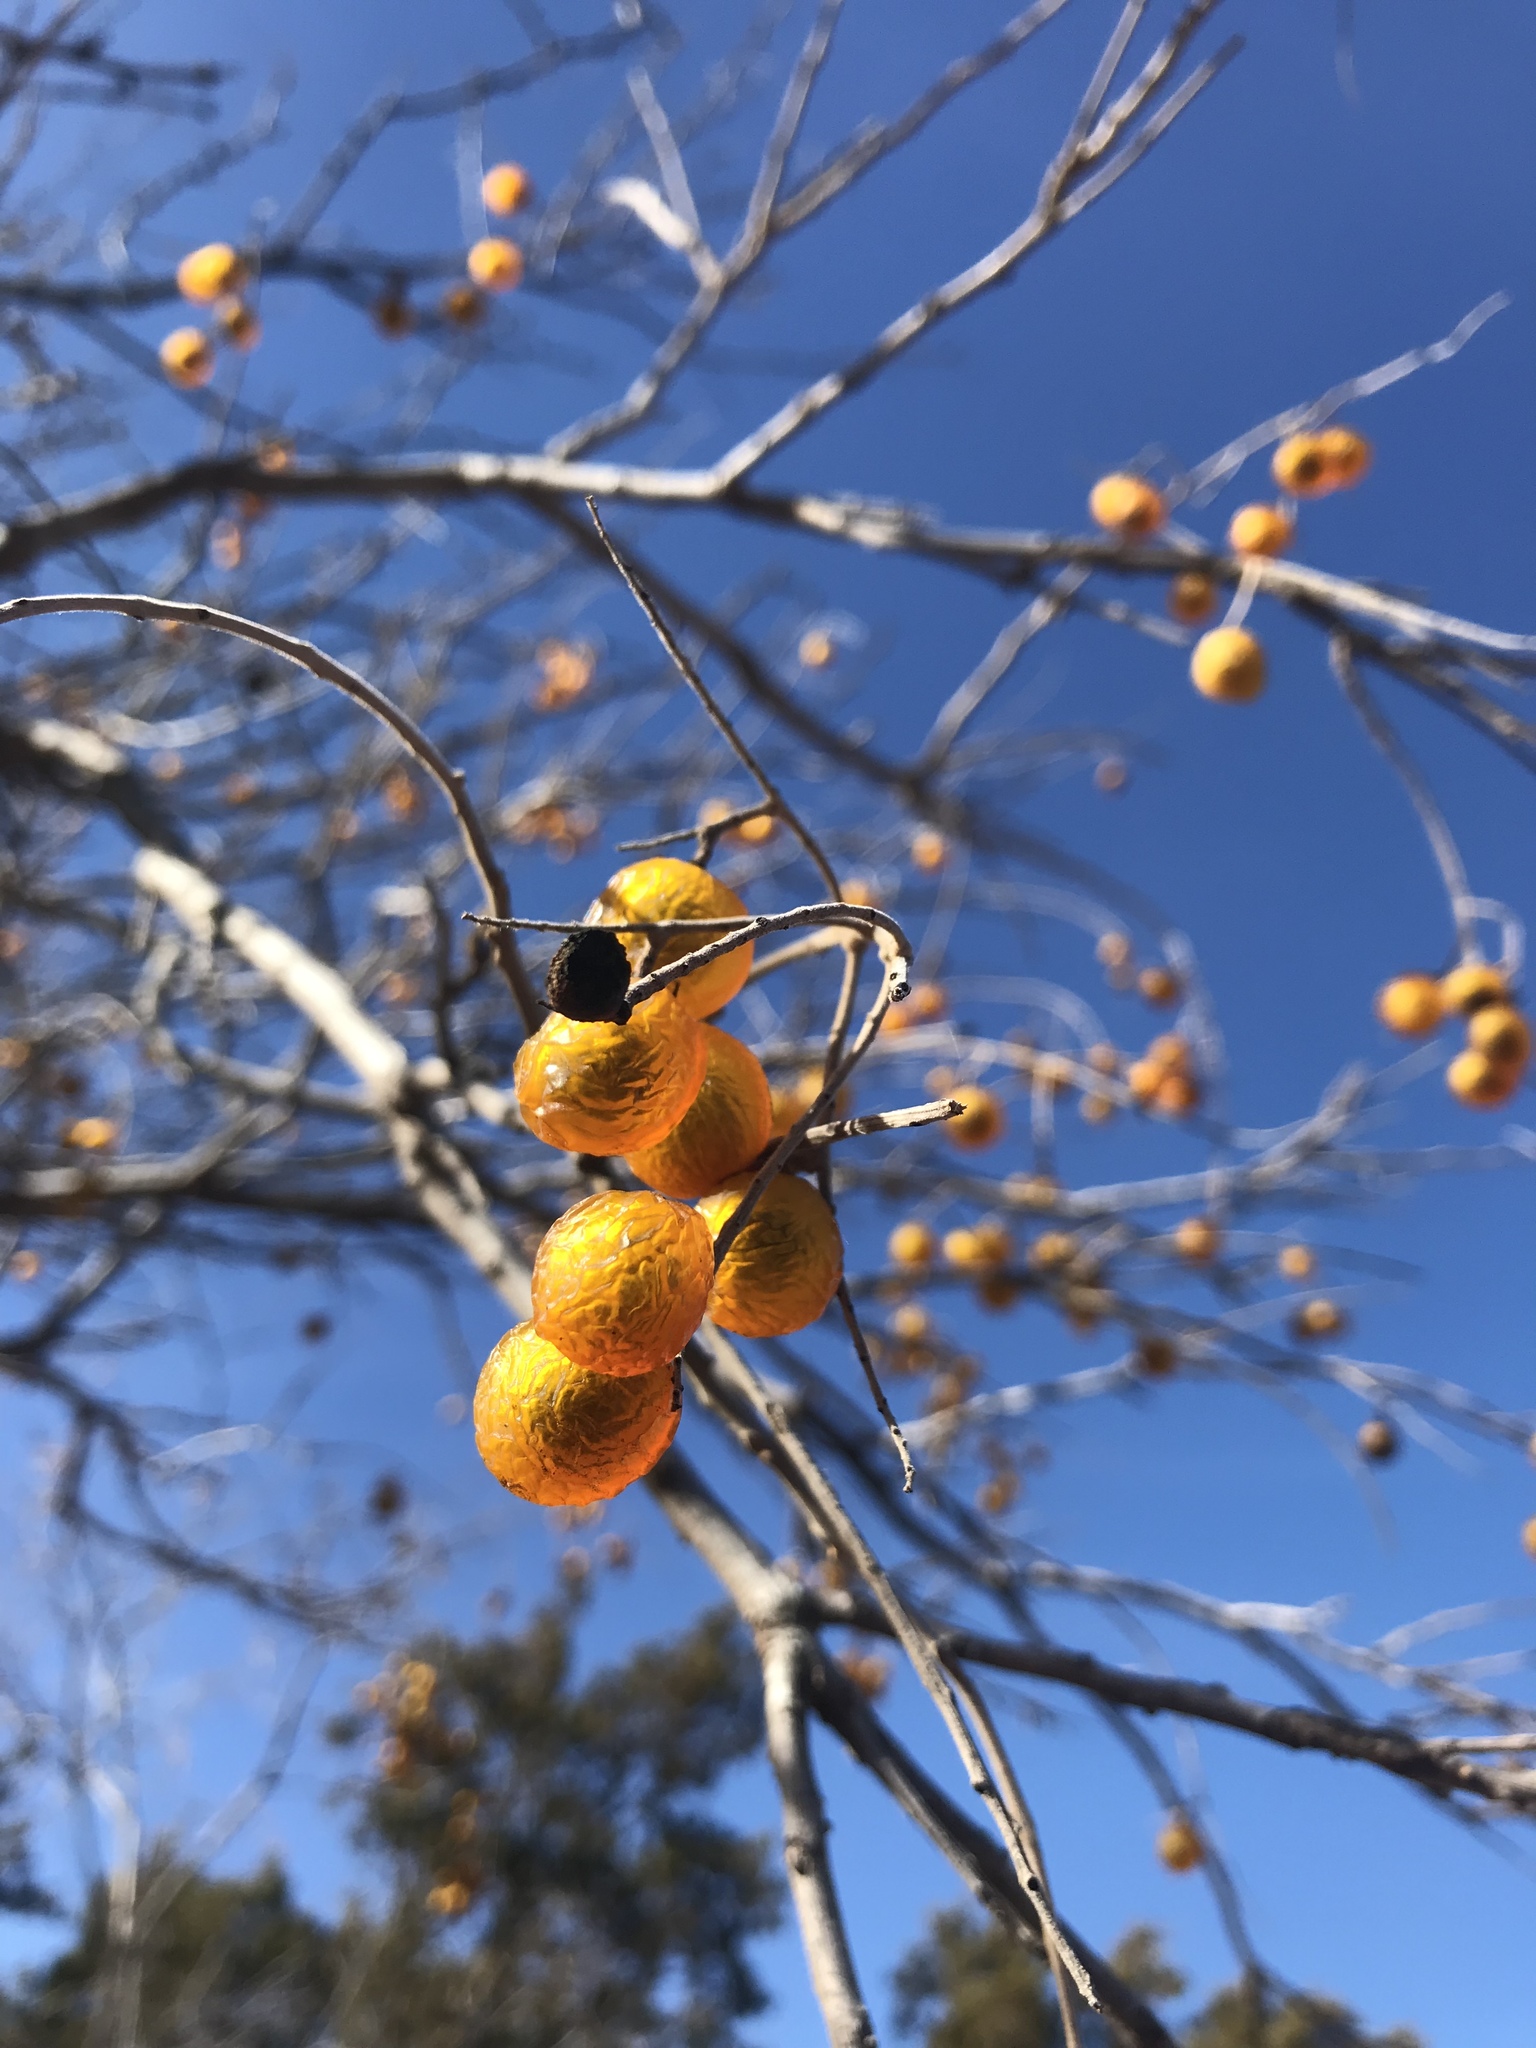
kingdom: Plantae
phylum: Tracheophyta
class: Magnoliopsida
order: Sapindales
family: Sapindaceae
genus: Sapindus
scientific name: Sapindus drummondii
